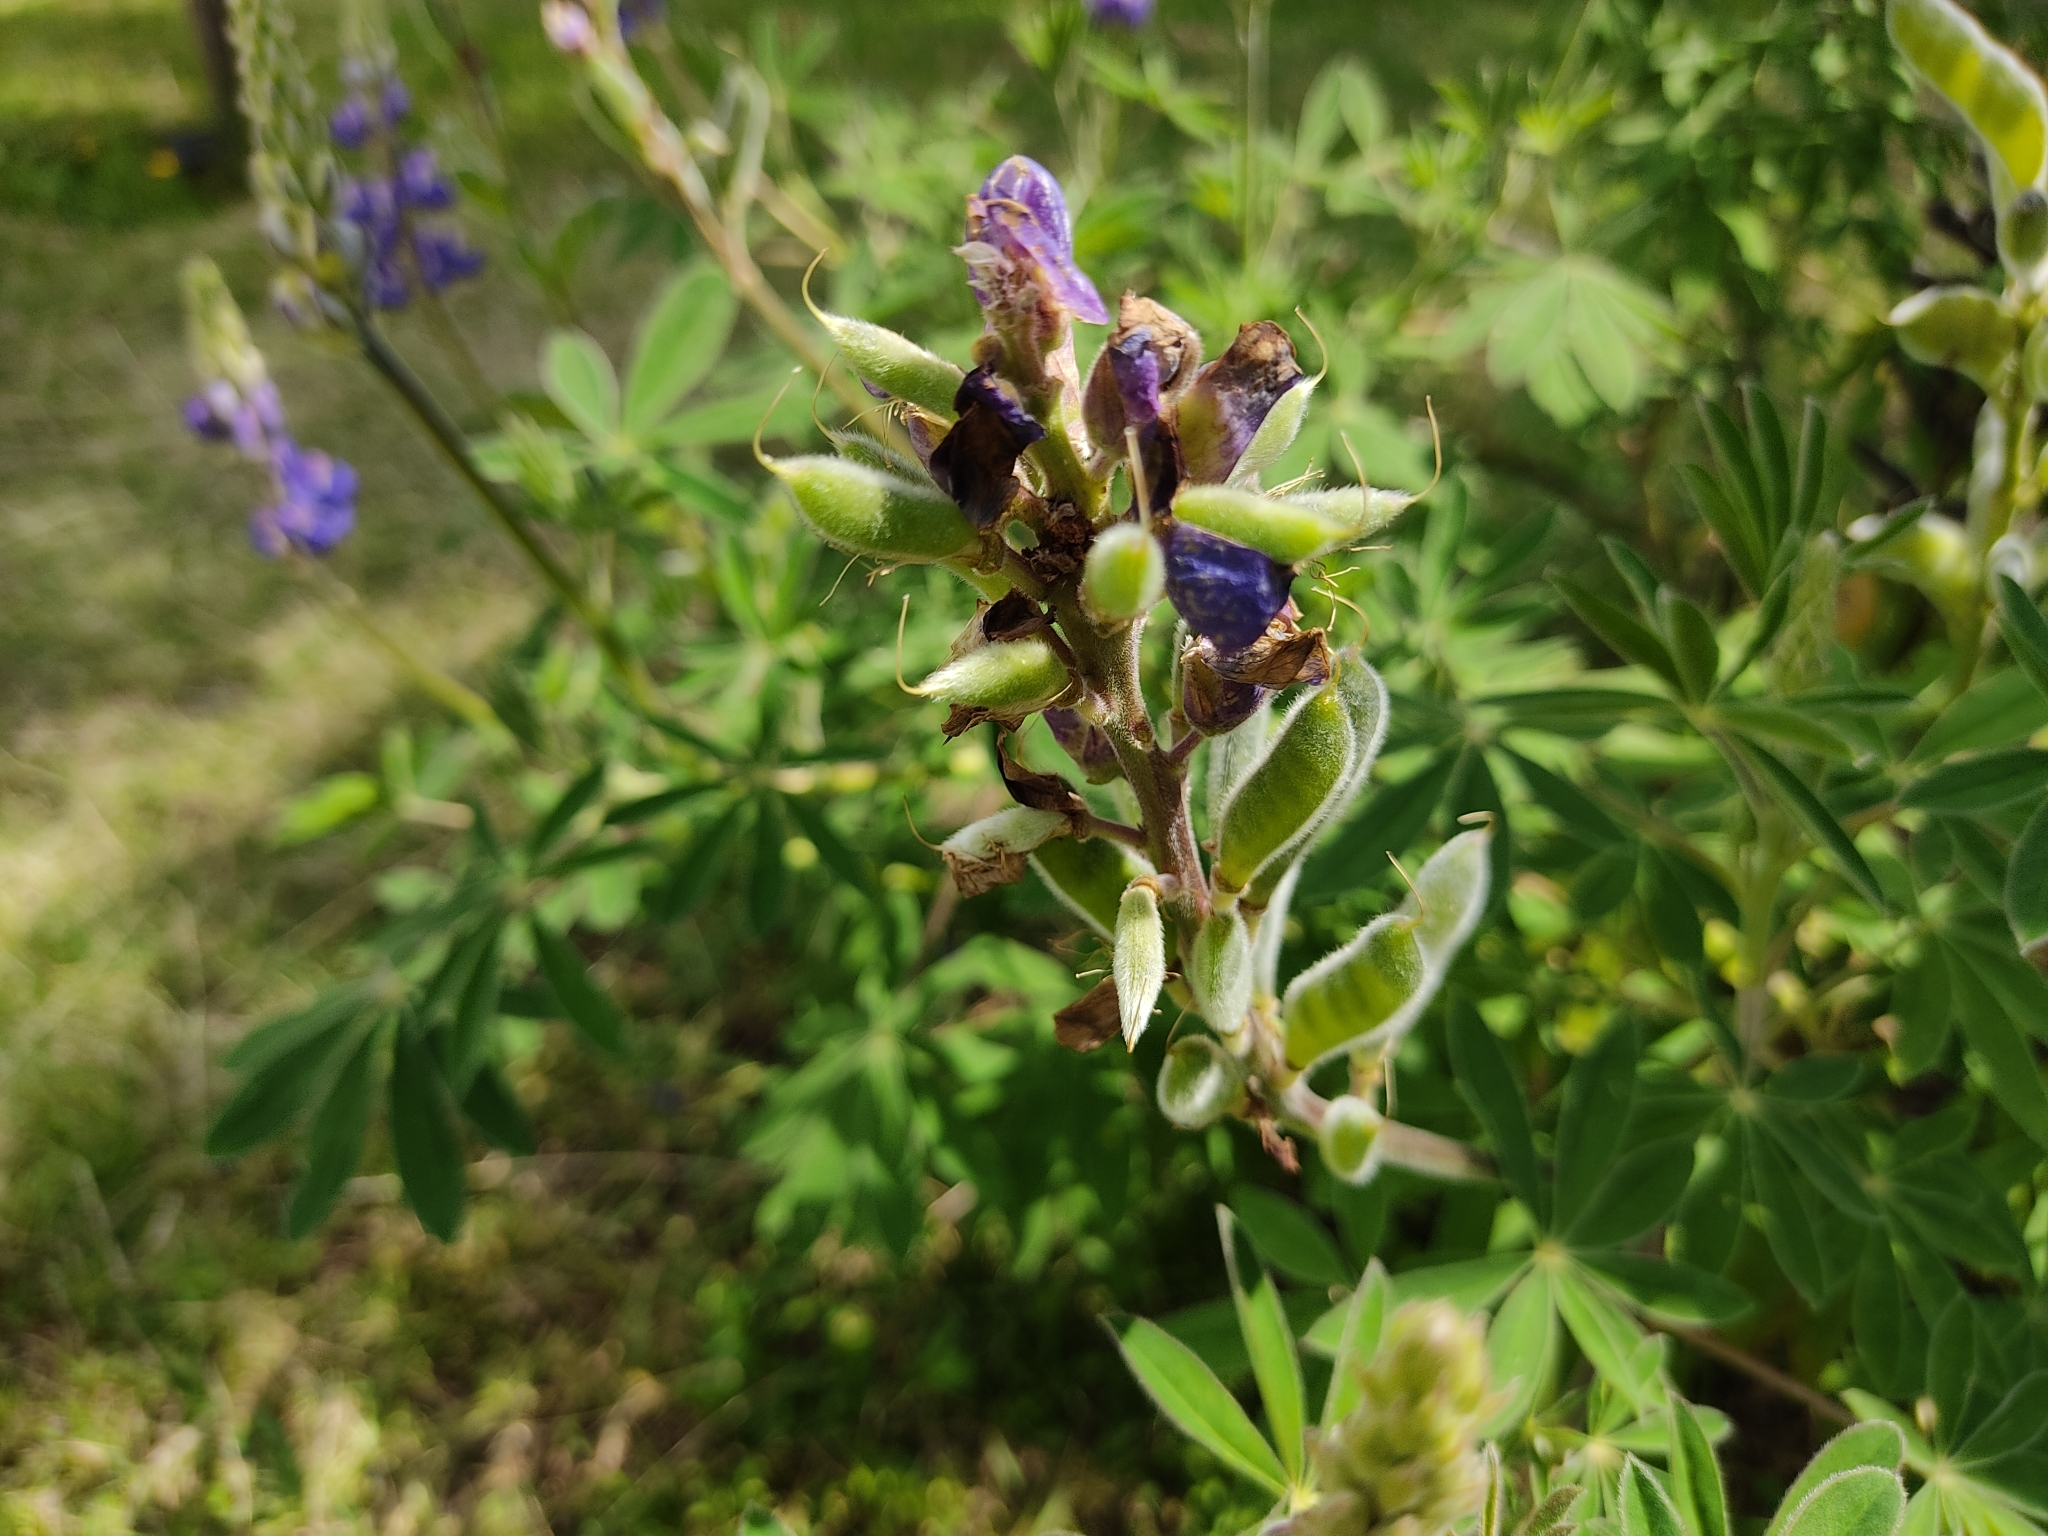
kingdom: Plantae
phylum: Tracheophyta
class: Magnoliopsida
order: Fabales
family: Fabaceae
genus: Lupinus
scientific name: Lupinus pubescens
